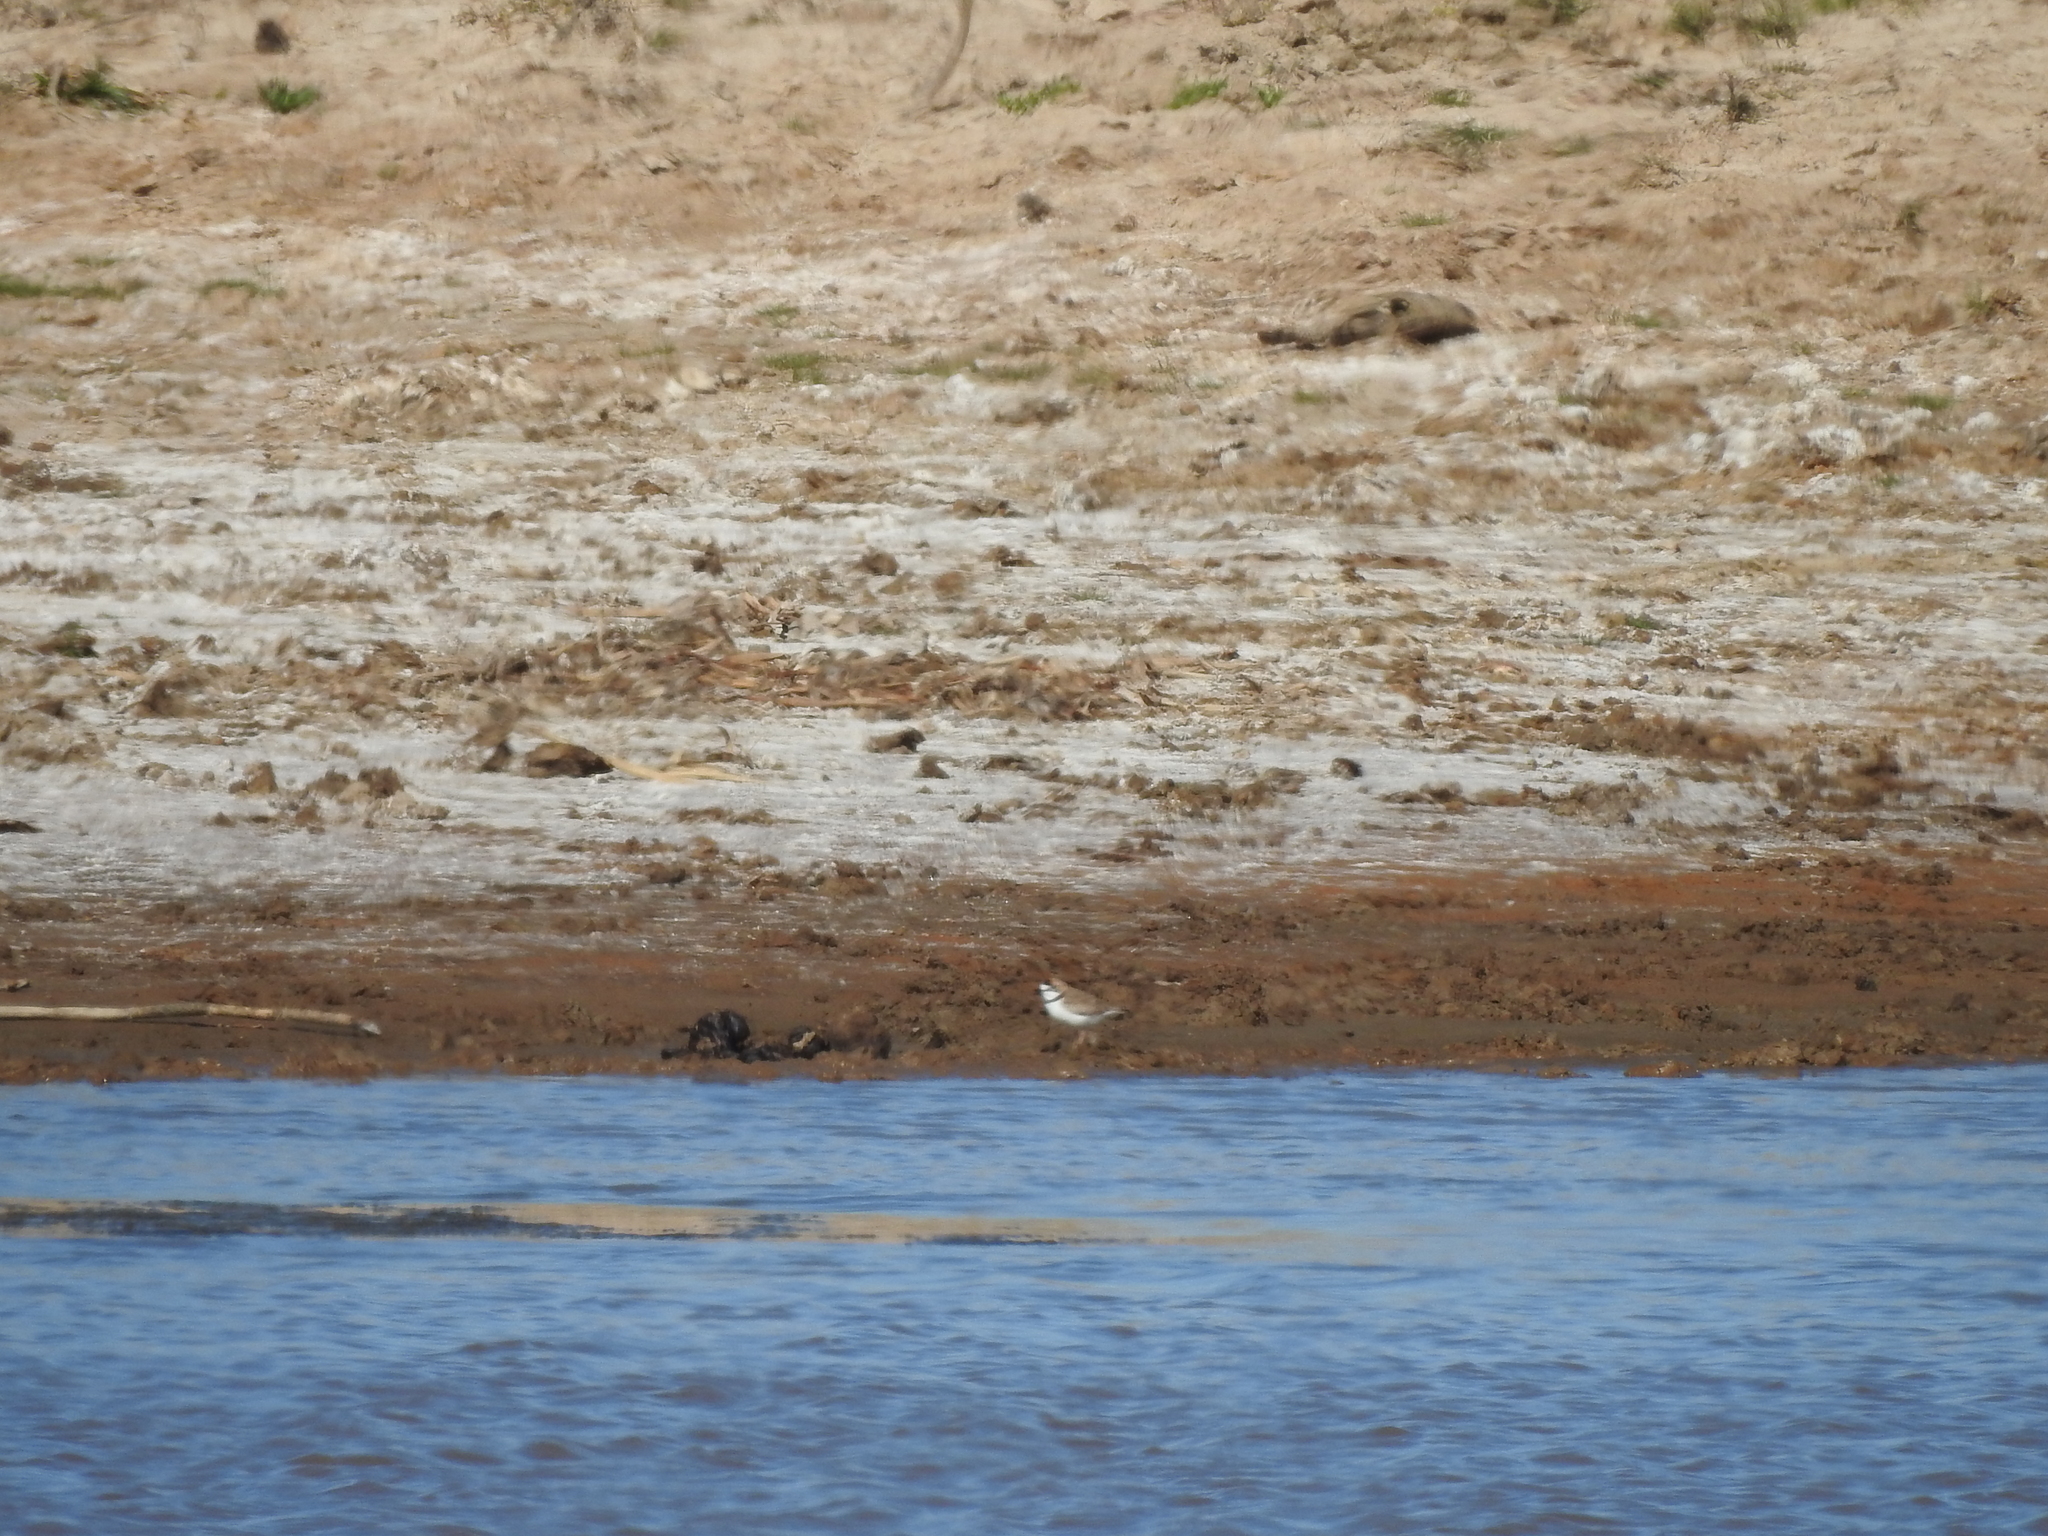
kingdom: Animalia
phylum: Chordata
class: Aves
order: Charadriiformes
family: Charadriidae
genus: Anarhynchus
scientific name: Anarhynchus
